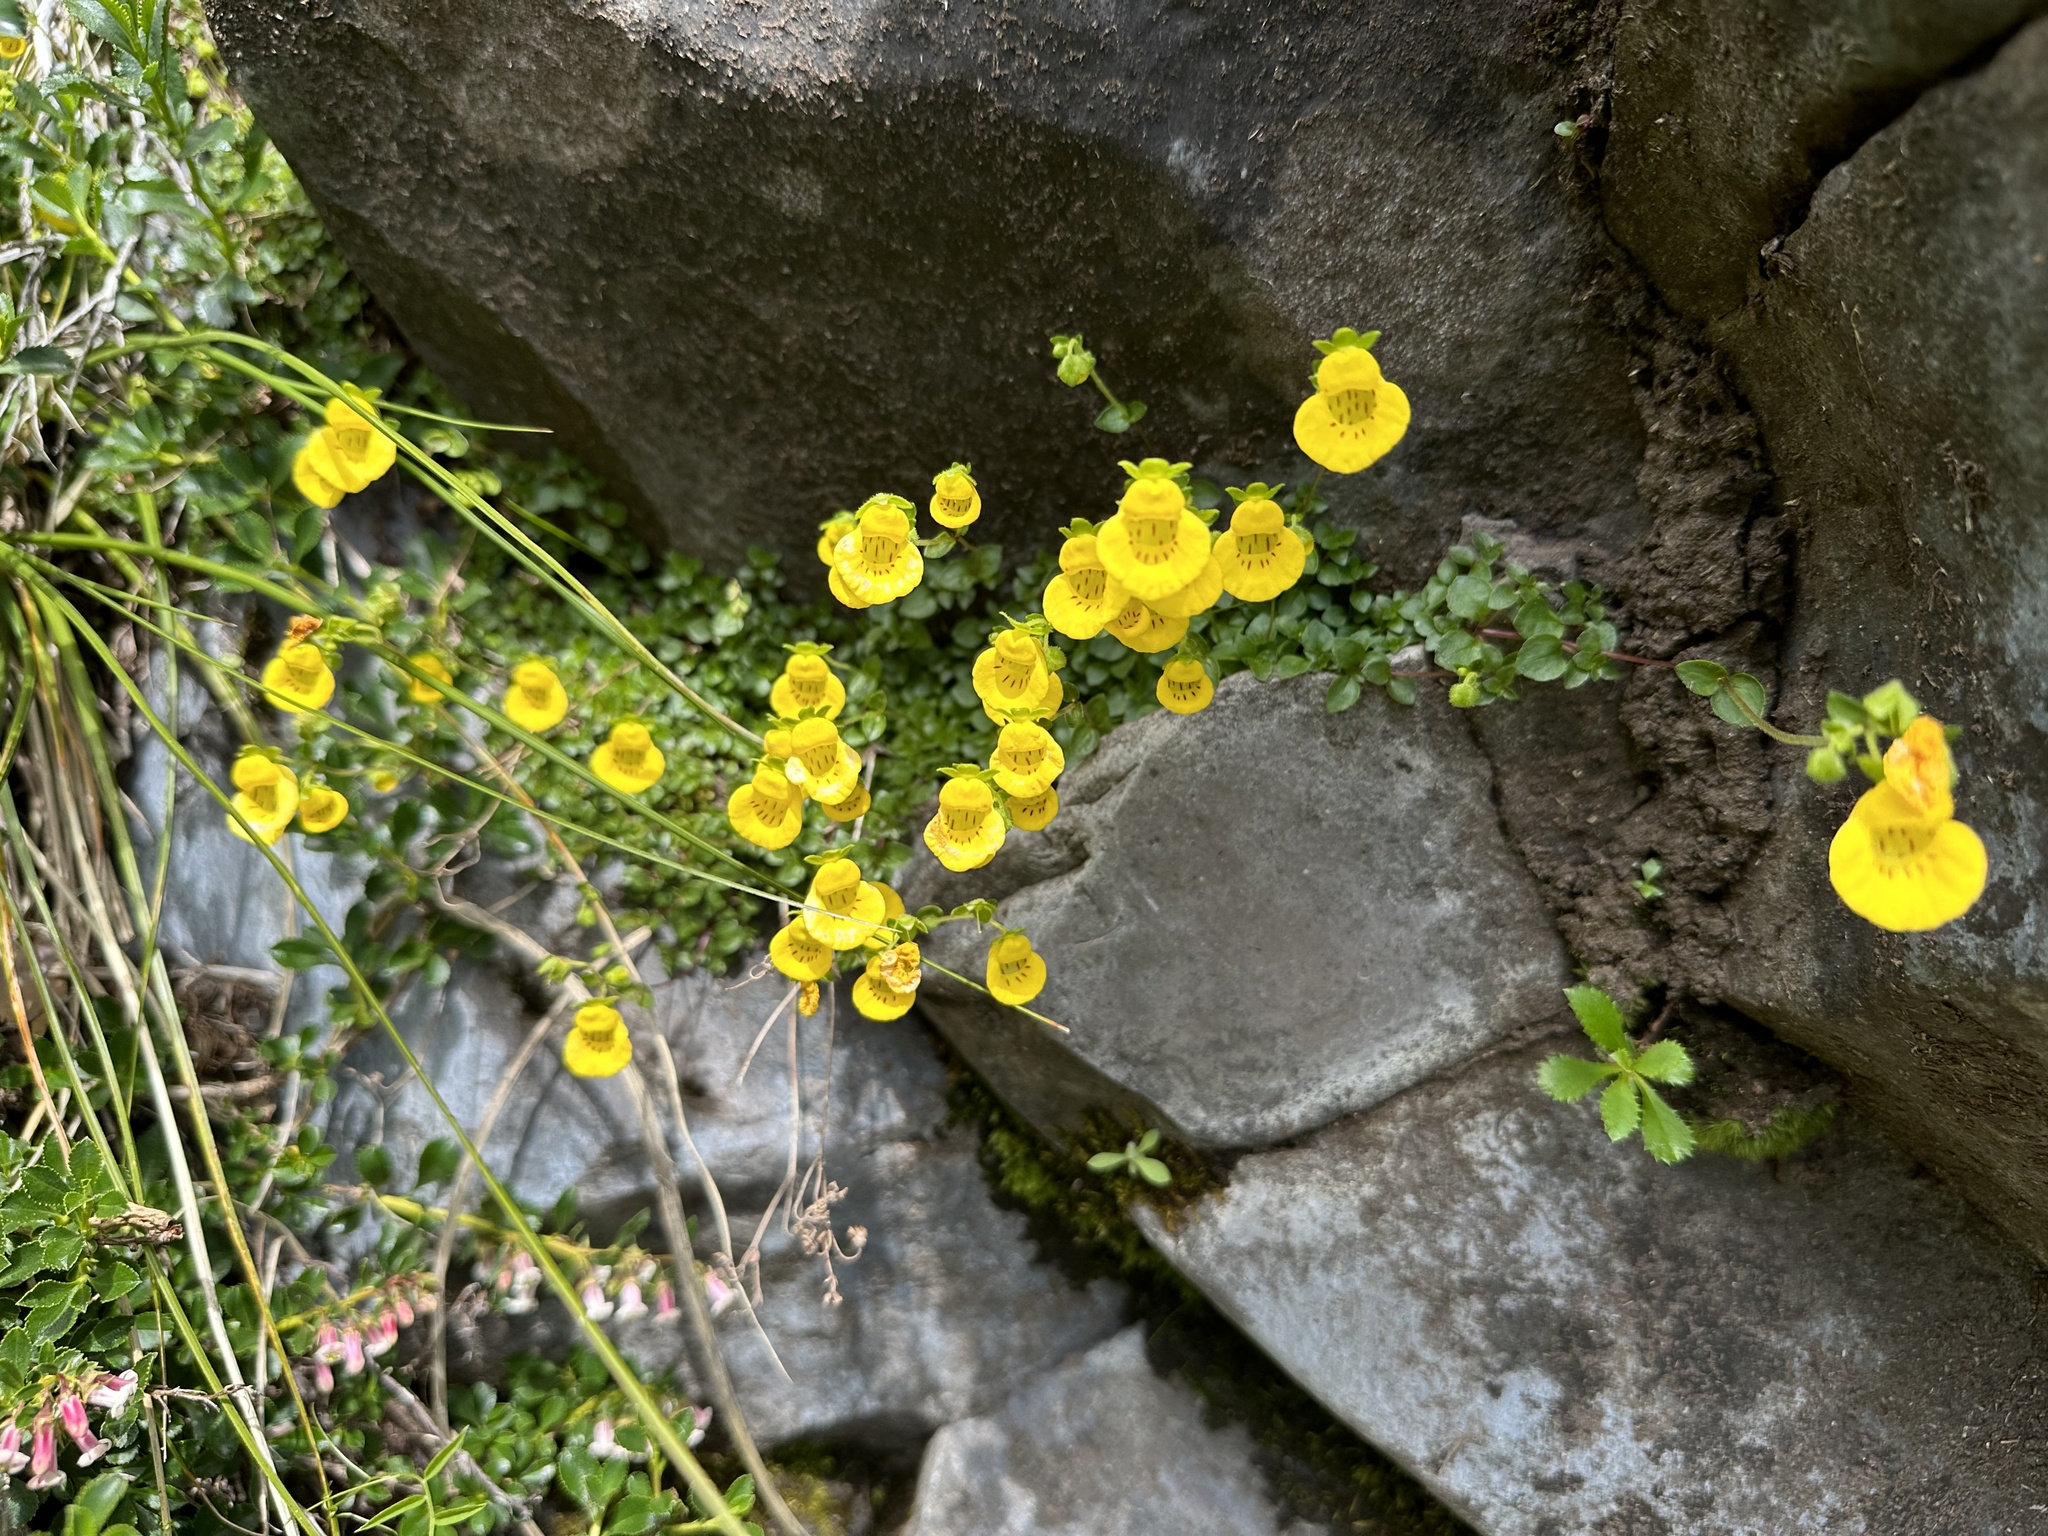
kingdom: Plantae
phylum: Tracheophyta
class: Magnoliopsida
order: Lamiales
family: Calceolariaceae
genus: Calceolaria
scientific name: Calceolaria tenella
